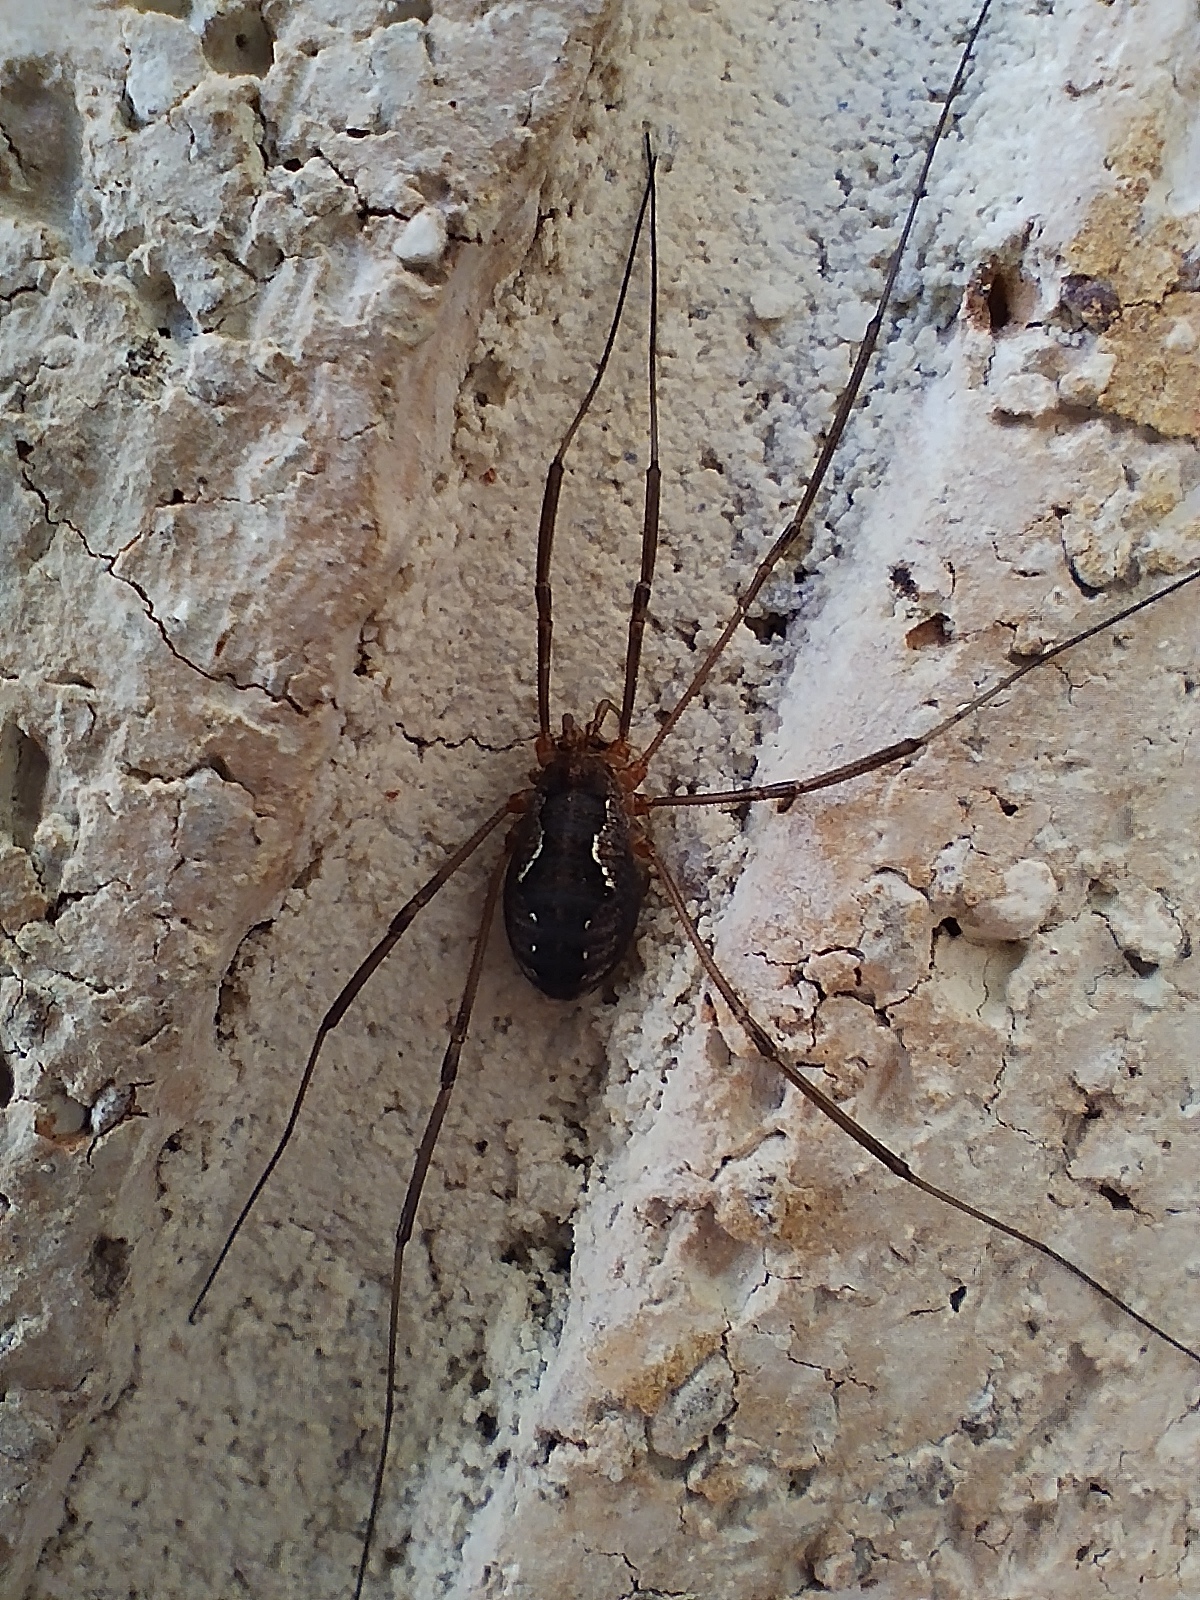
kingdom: Animalia
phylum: Arthropoda
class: Arachnida
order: Opiliones
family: Phalangiidae
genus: Phalangium
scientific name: Phalangium opilio
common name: Daddy longleg
